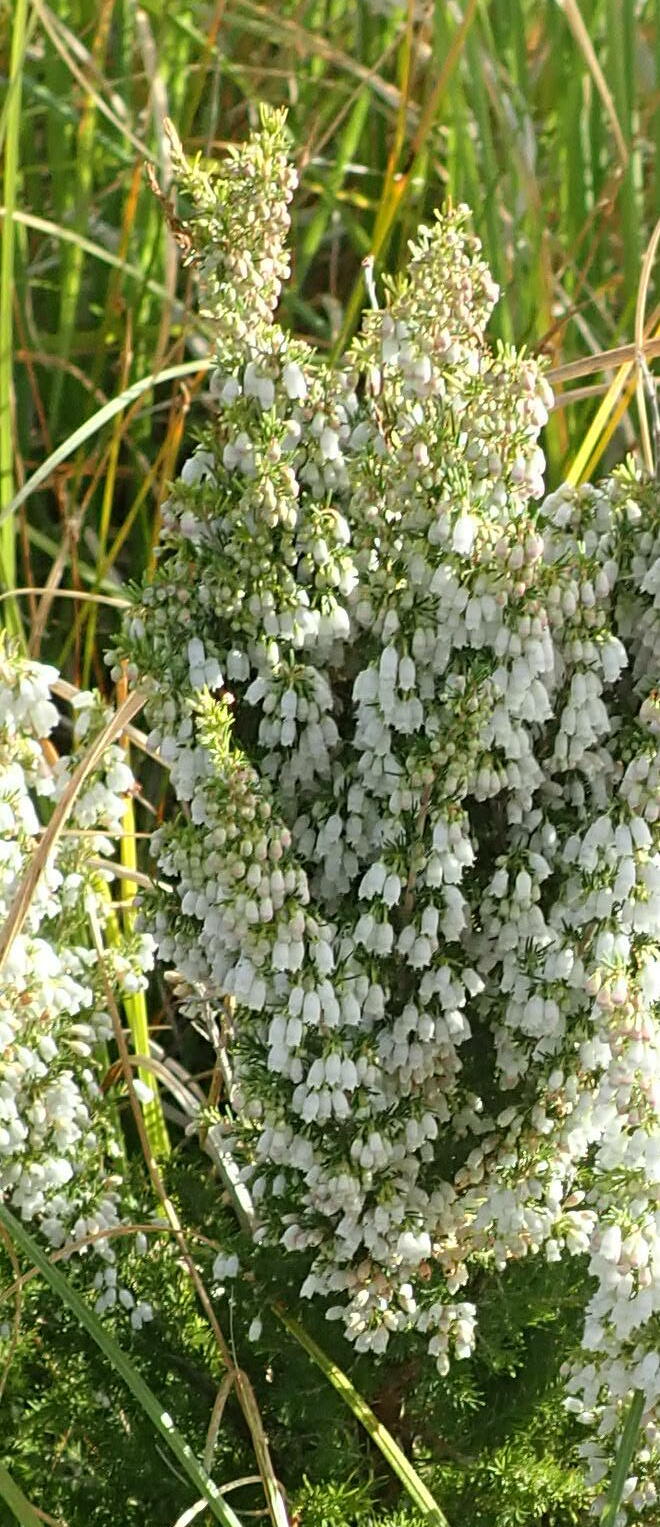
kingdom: Plantae
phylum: Tracheophyta
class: Magnoliopsida
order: Ericales
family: Ericaceae
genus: Erica
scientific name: Erica lusitanica
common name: Spanish heath
